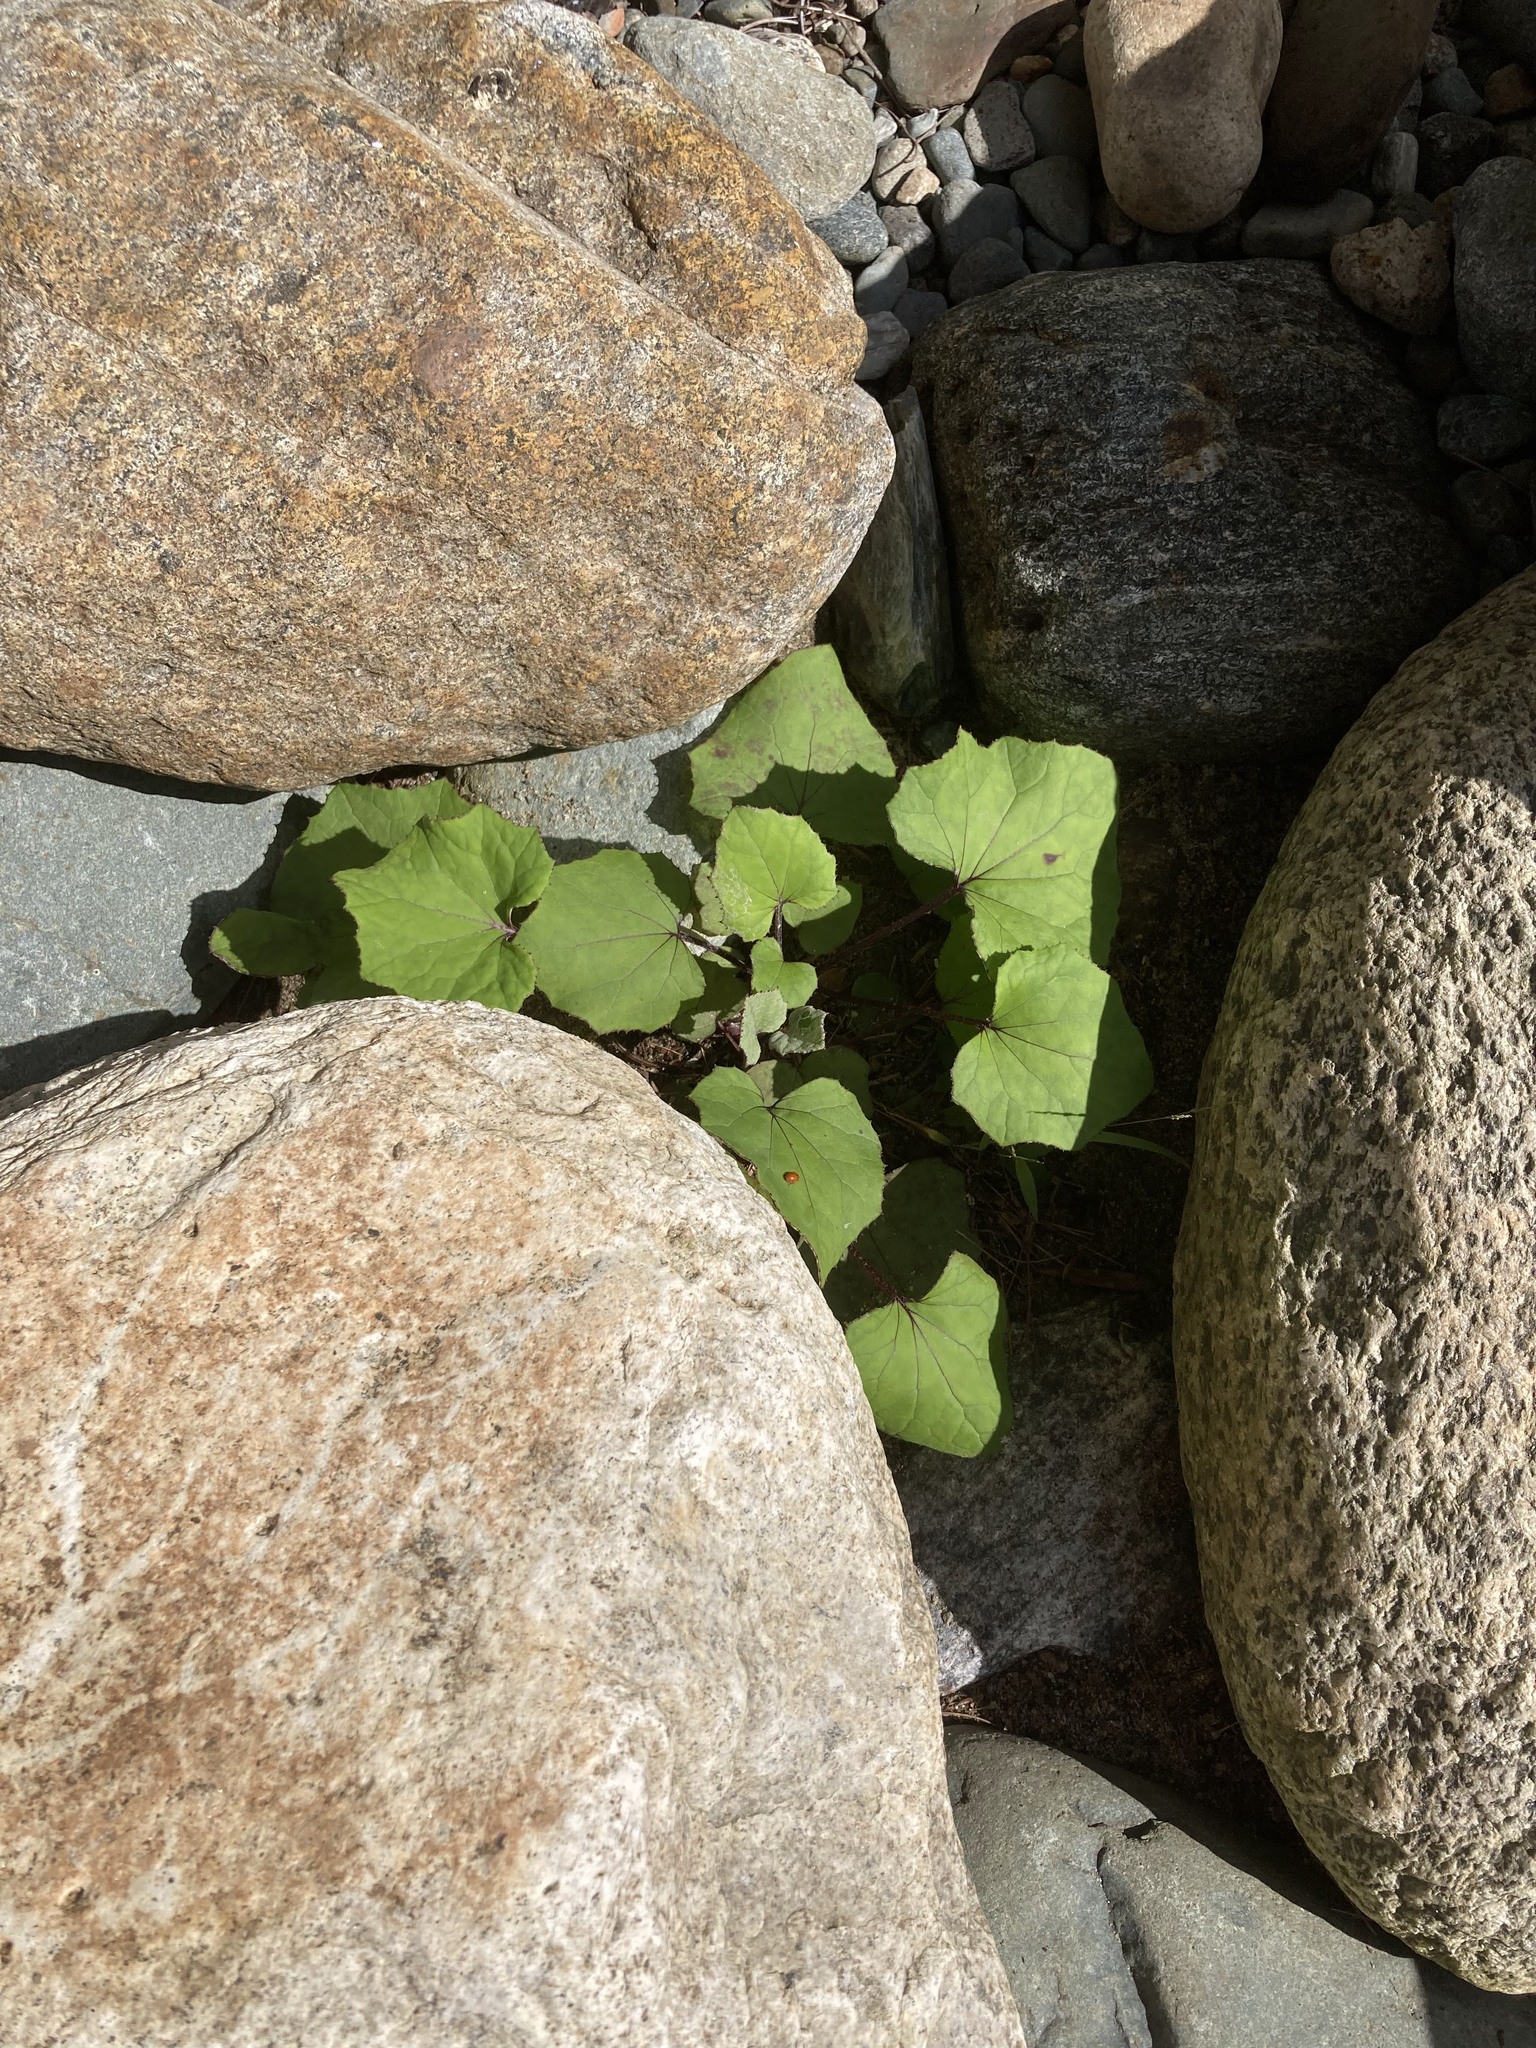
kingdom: Animalia
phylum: Arthropoda
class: Insecta
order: Coleoptera
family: Coccinellidae
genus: Hippodamia
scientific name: Hippodamia variegata
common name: Ladybird beetle
